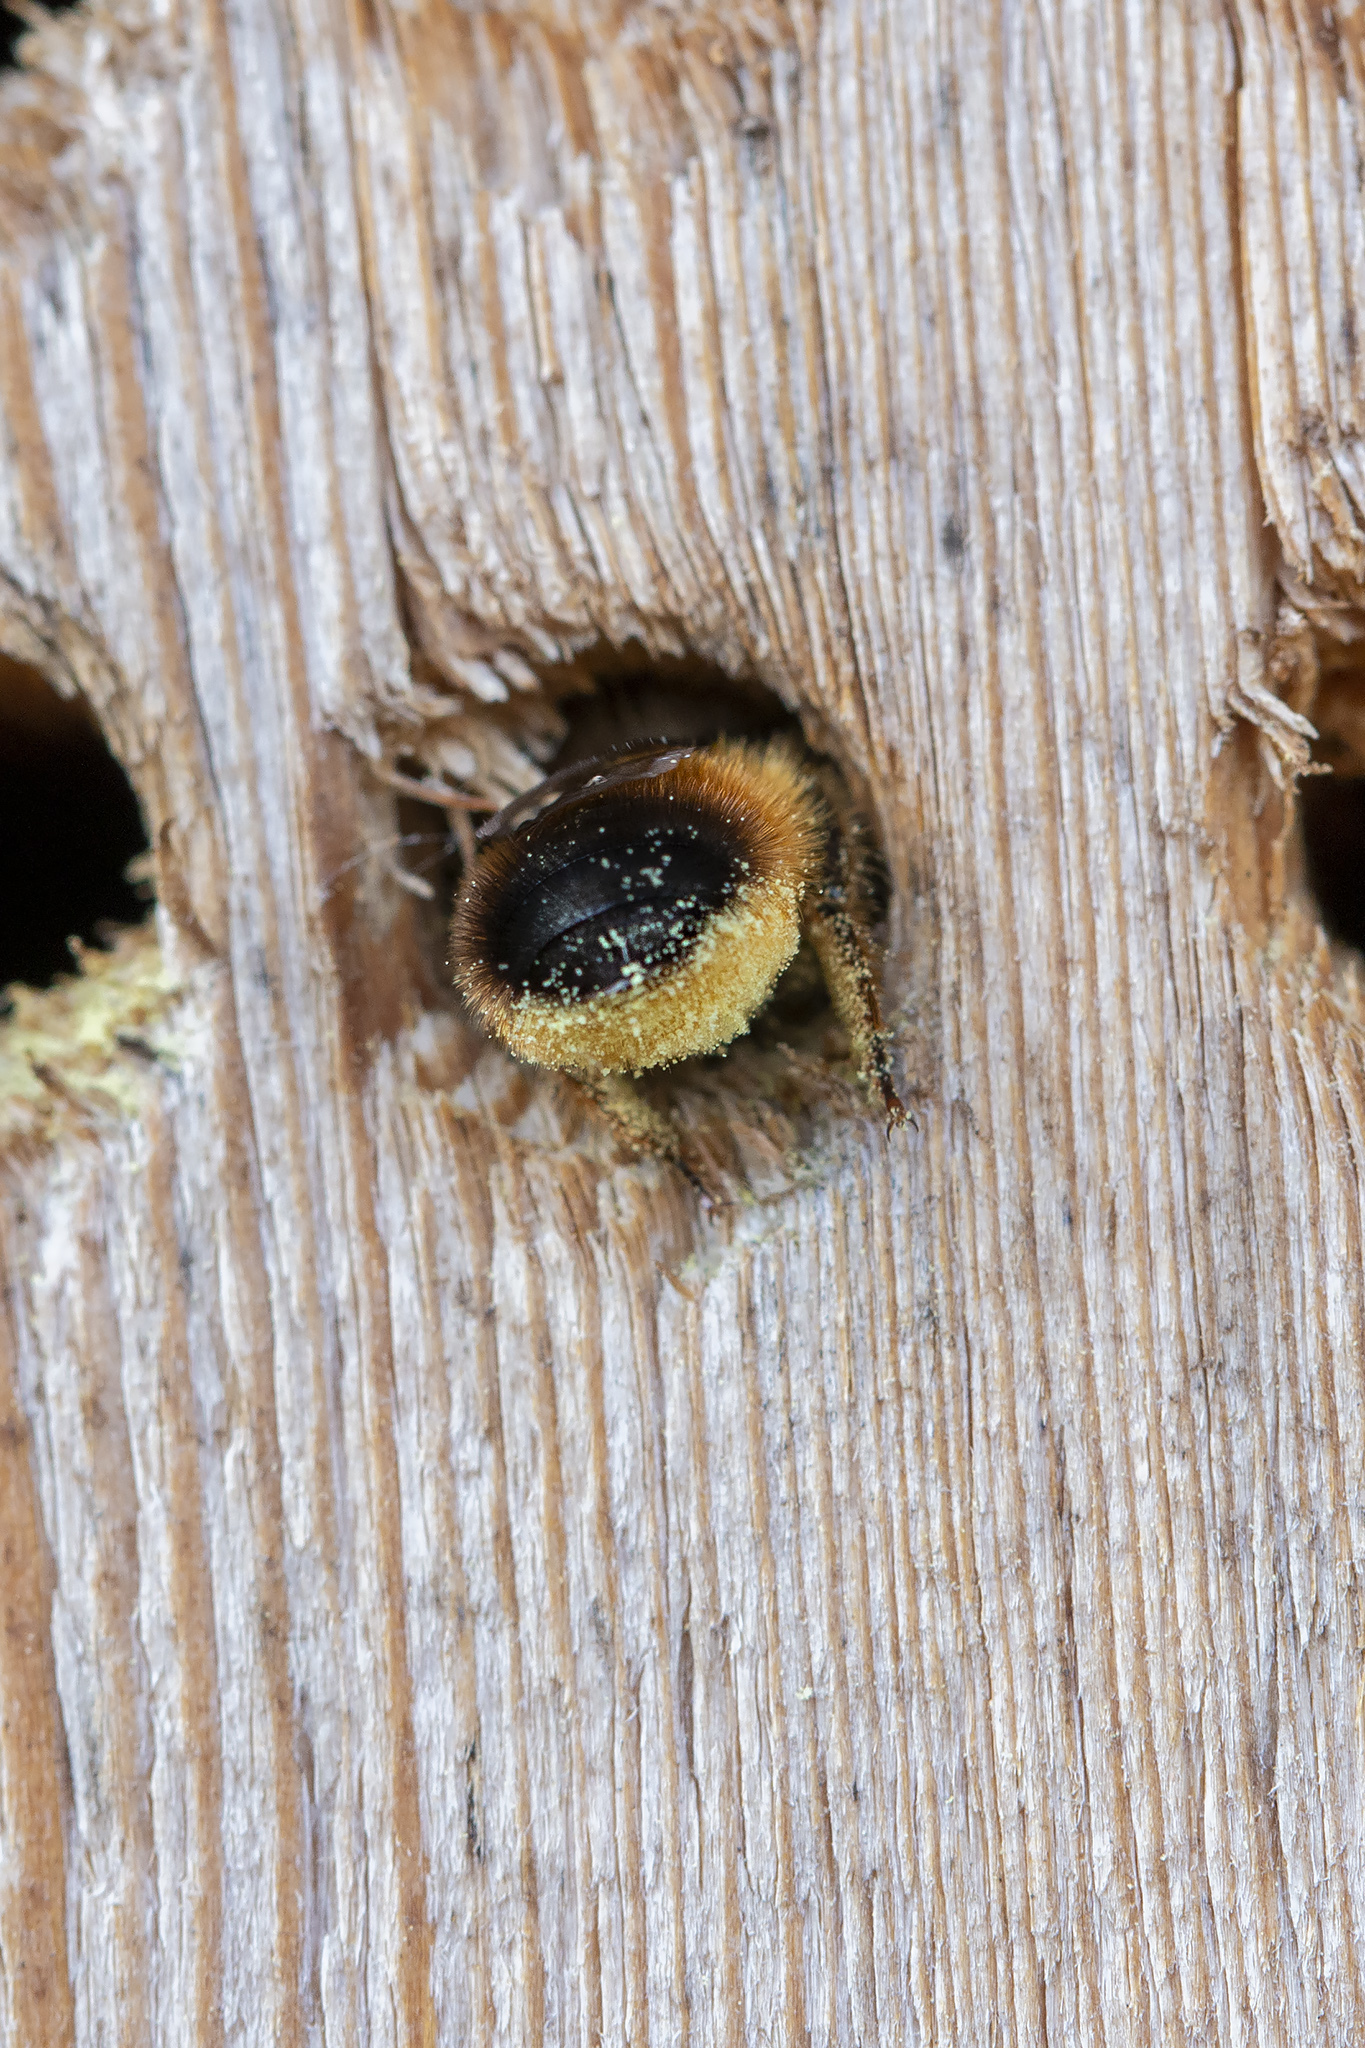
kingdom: Animalia
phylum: Arthropoda
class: Insecta
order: Hymenoptera
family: Megachilidae
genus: Osmia
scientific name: Osmia bicornis
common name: Red mason bee
